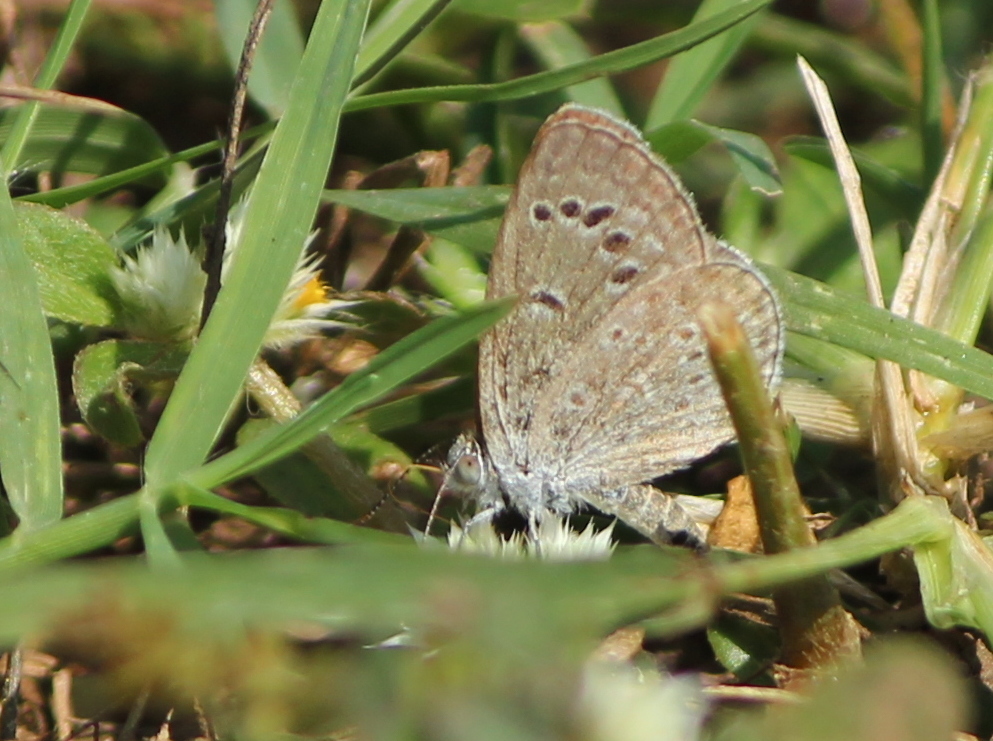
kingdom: Animalia
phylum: Arthropoda
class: Insecta
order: Lepidoptera
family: Lycaenidae
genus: Zizina
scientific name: Zizina otis
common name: Lesser grass blue
